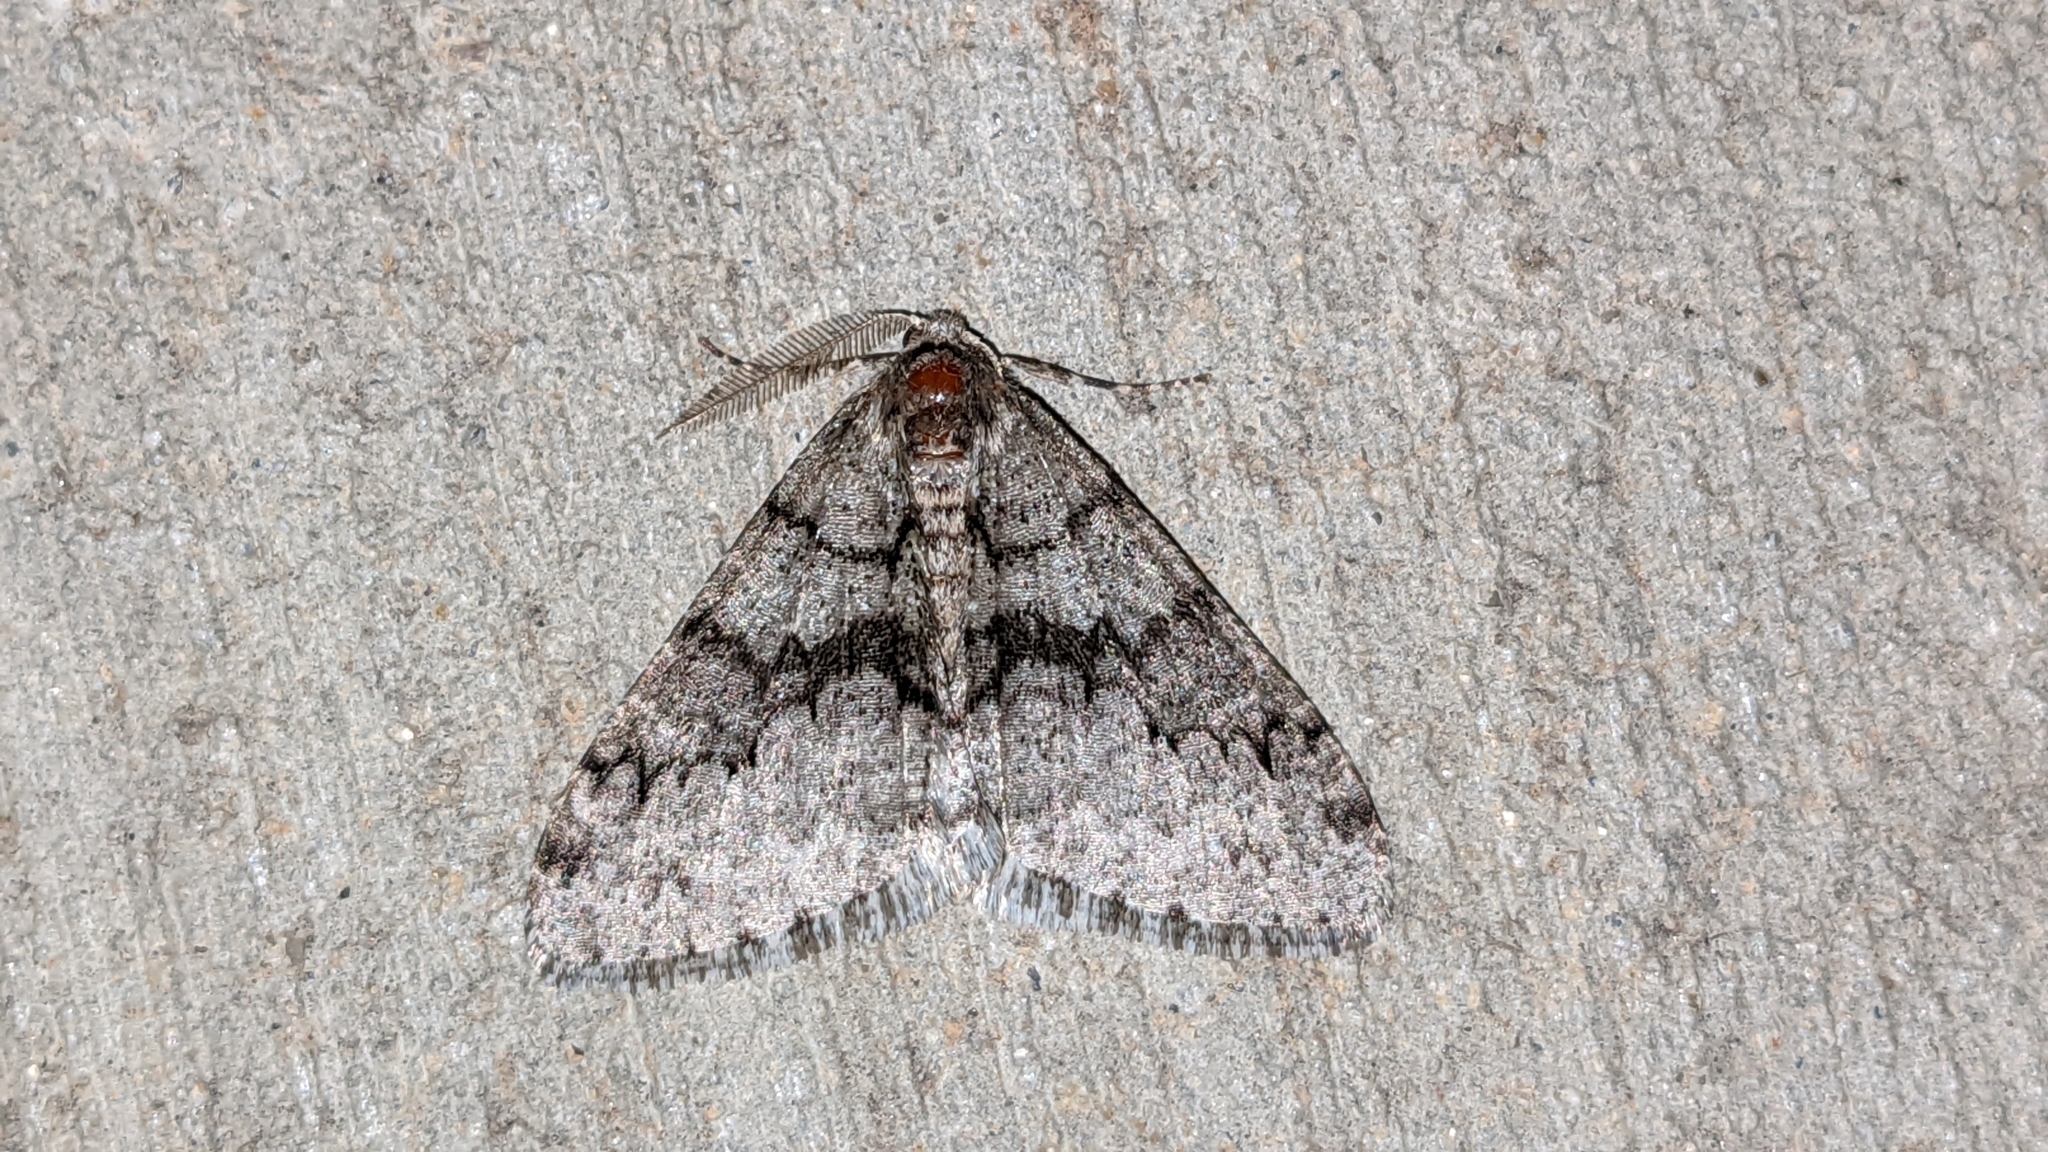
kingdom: Animalia
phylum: Arthropoda
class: Insecta
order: Lepidoptera
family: Geometridae
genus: Phigalia
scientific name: Phigalia denticulata
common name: Toothed phigalia
